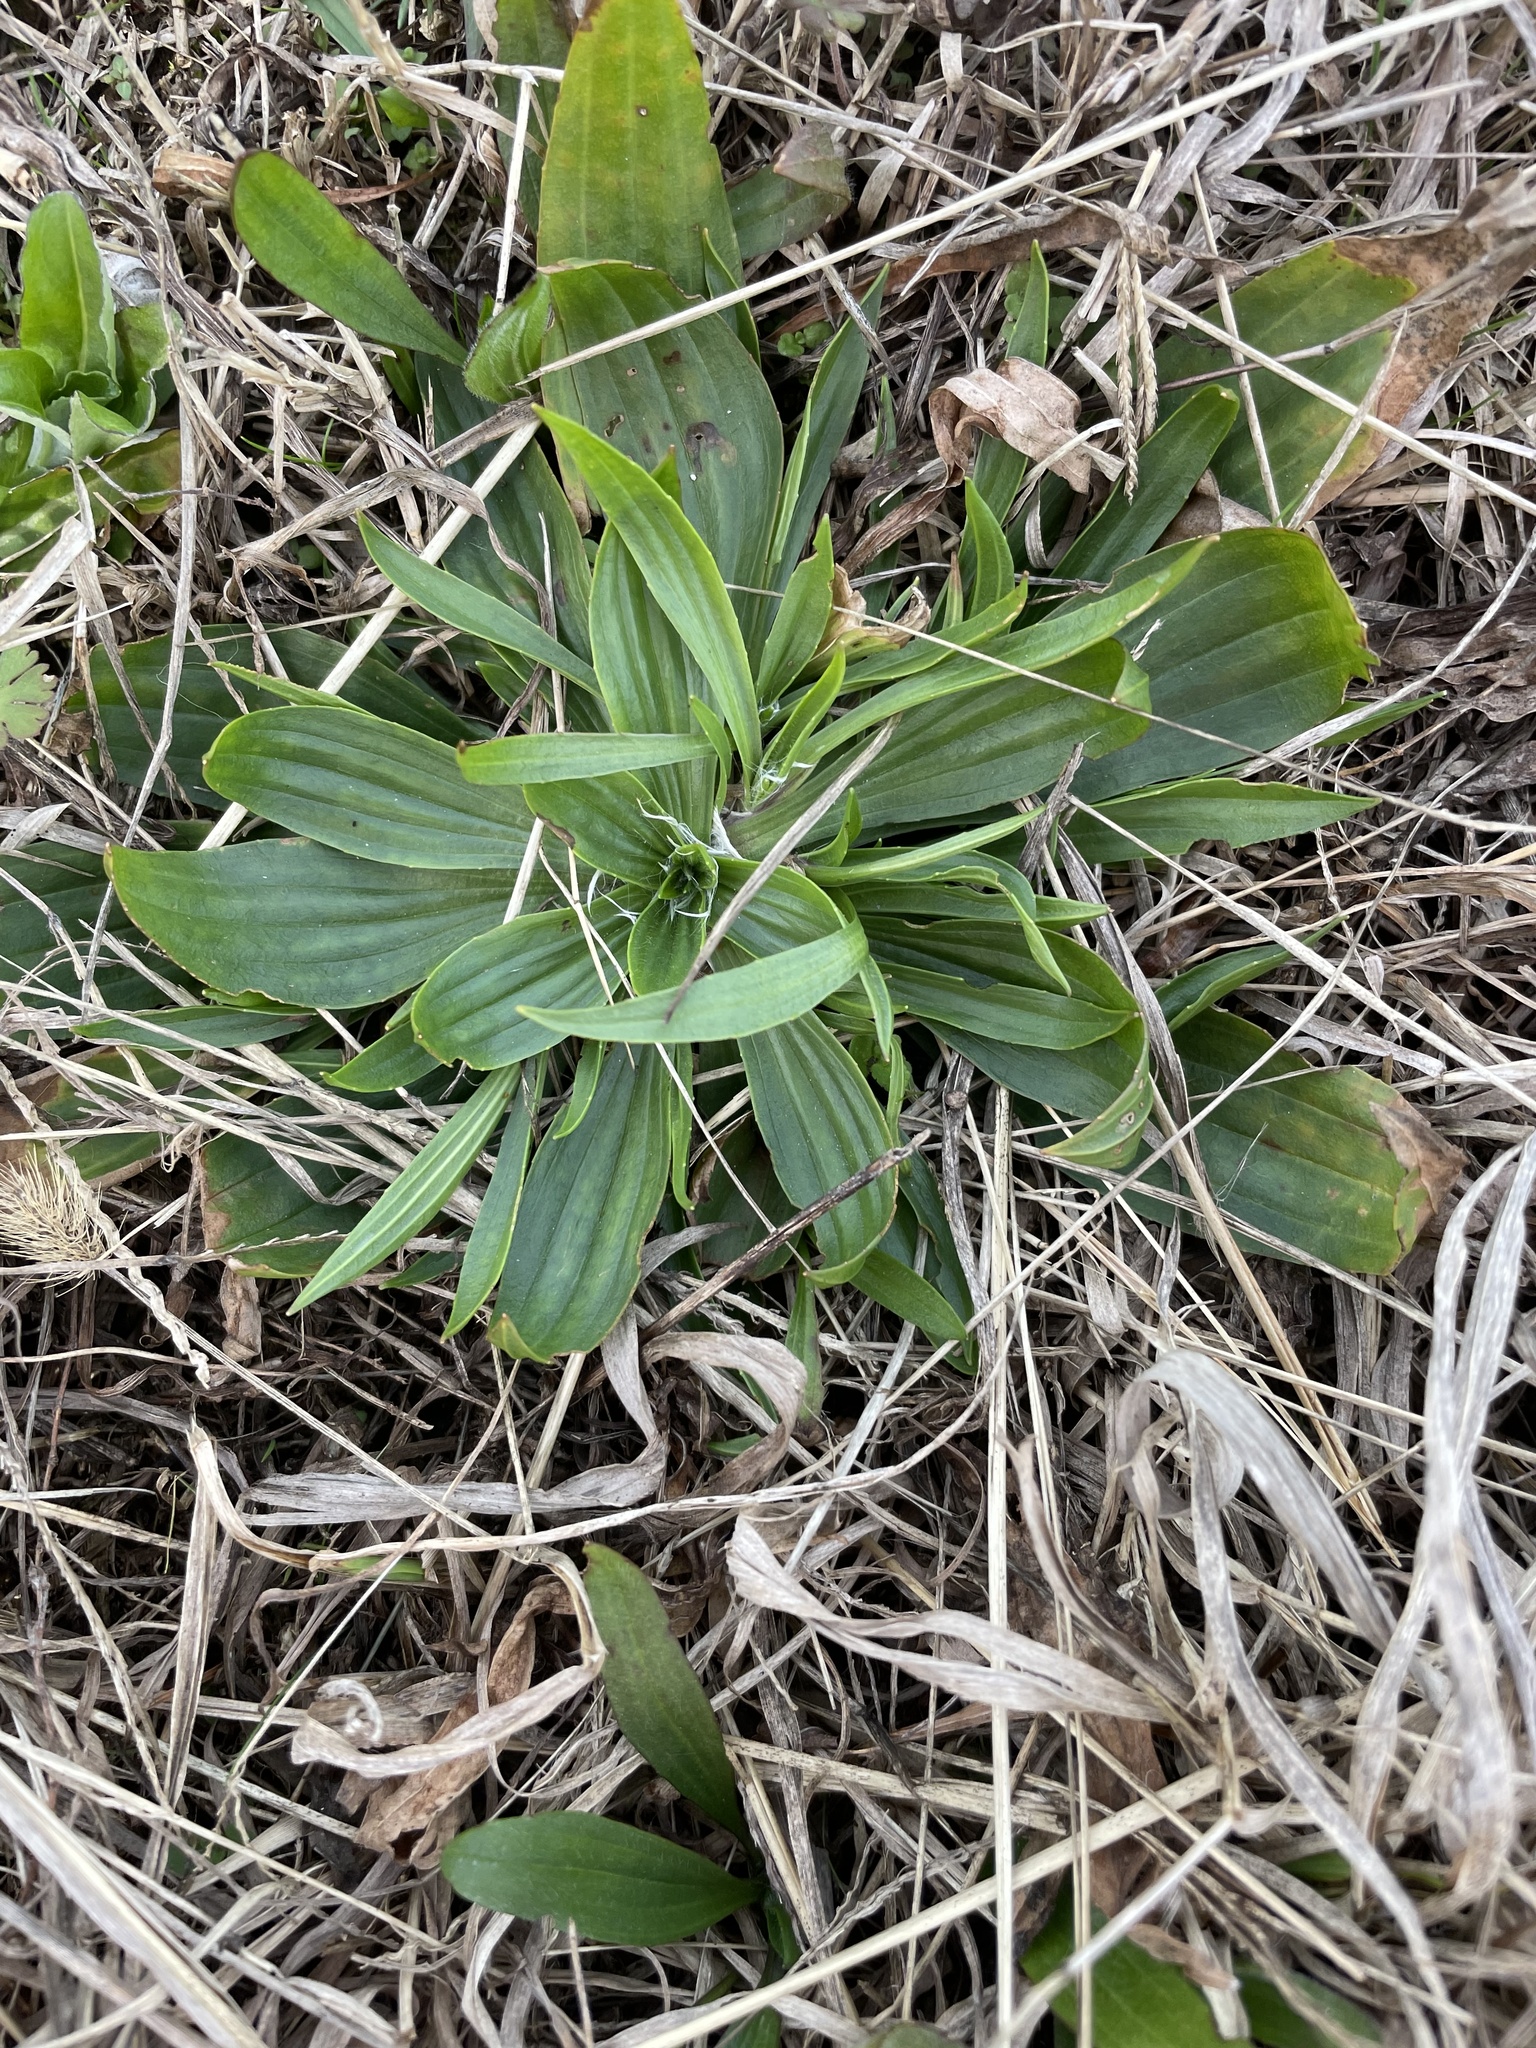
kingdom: Plantae
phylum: Tracheophyta
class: Magnoliopsida
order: Lamiales
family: Plantaginaceae
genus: Plantago
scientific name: Plantago lanceolata
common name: Ribwort plantain
